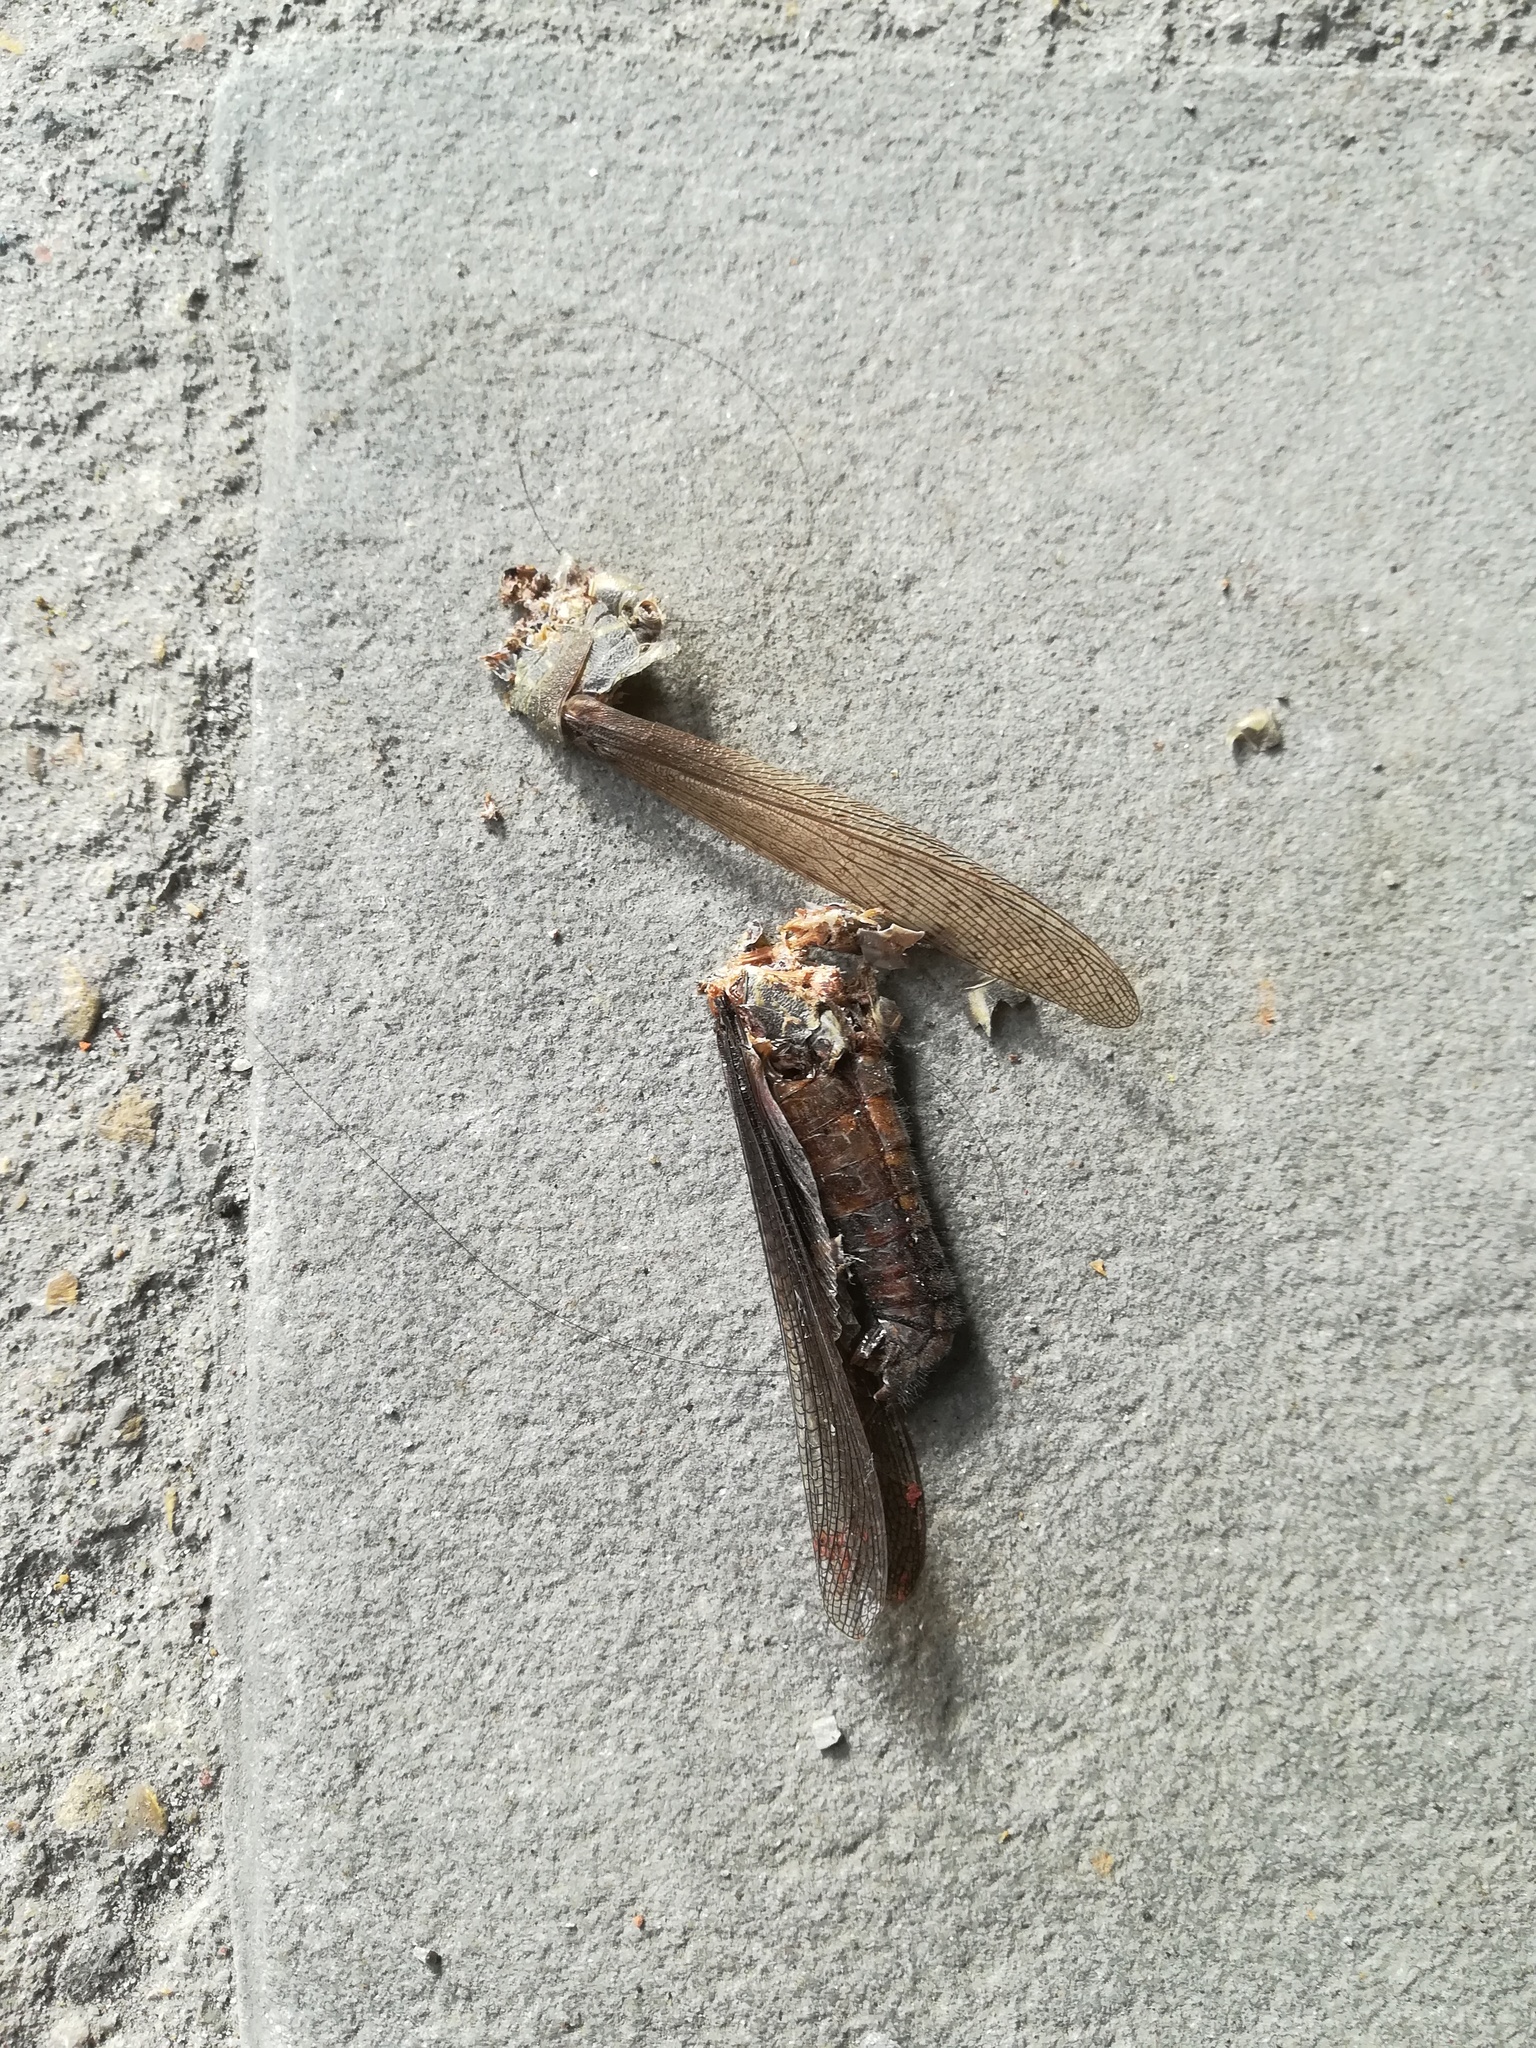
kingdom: Animalia
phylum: Arthropoda
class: Insecta
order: Orthoptera
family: Acrididae
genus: Anacridium
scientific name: Anacridium aegyptium
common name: Egyptian grasshopper
